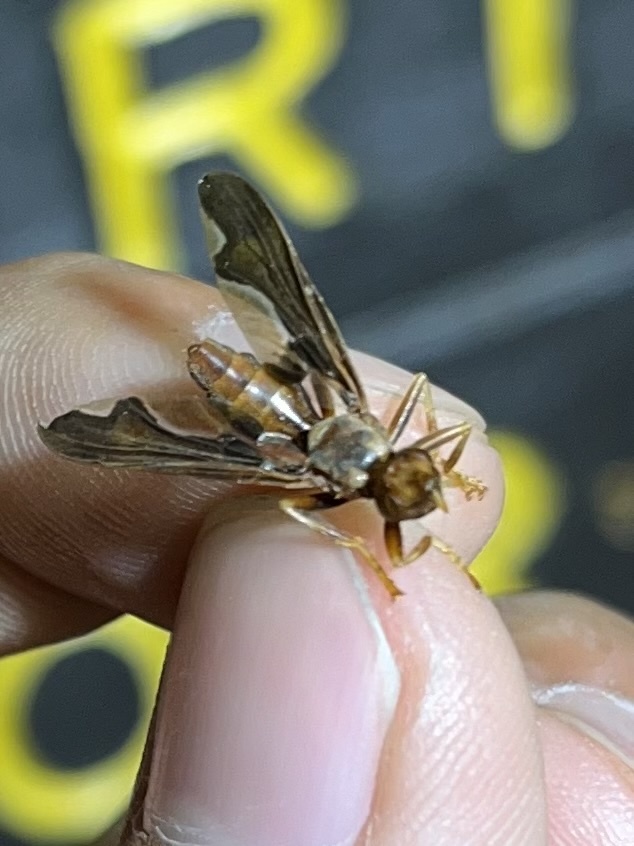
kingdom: Animalia
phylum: Arthropoda
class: Insecta
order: Diptera
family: Pyrgotidae
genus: Pyrgota
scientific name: Pyrgota undata
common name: Waved light fly
